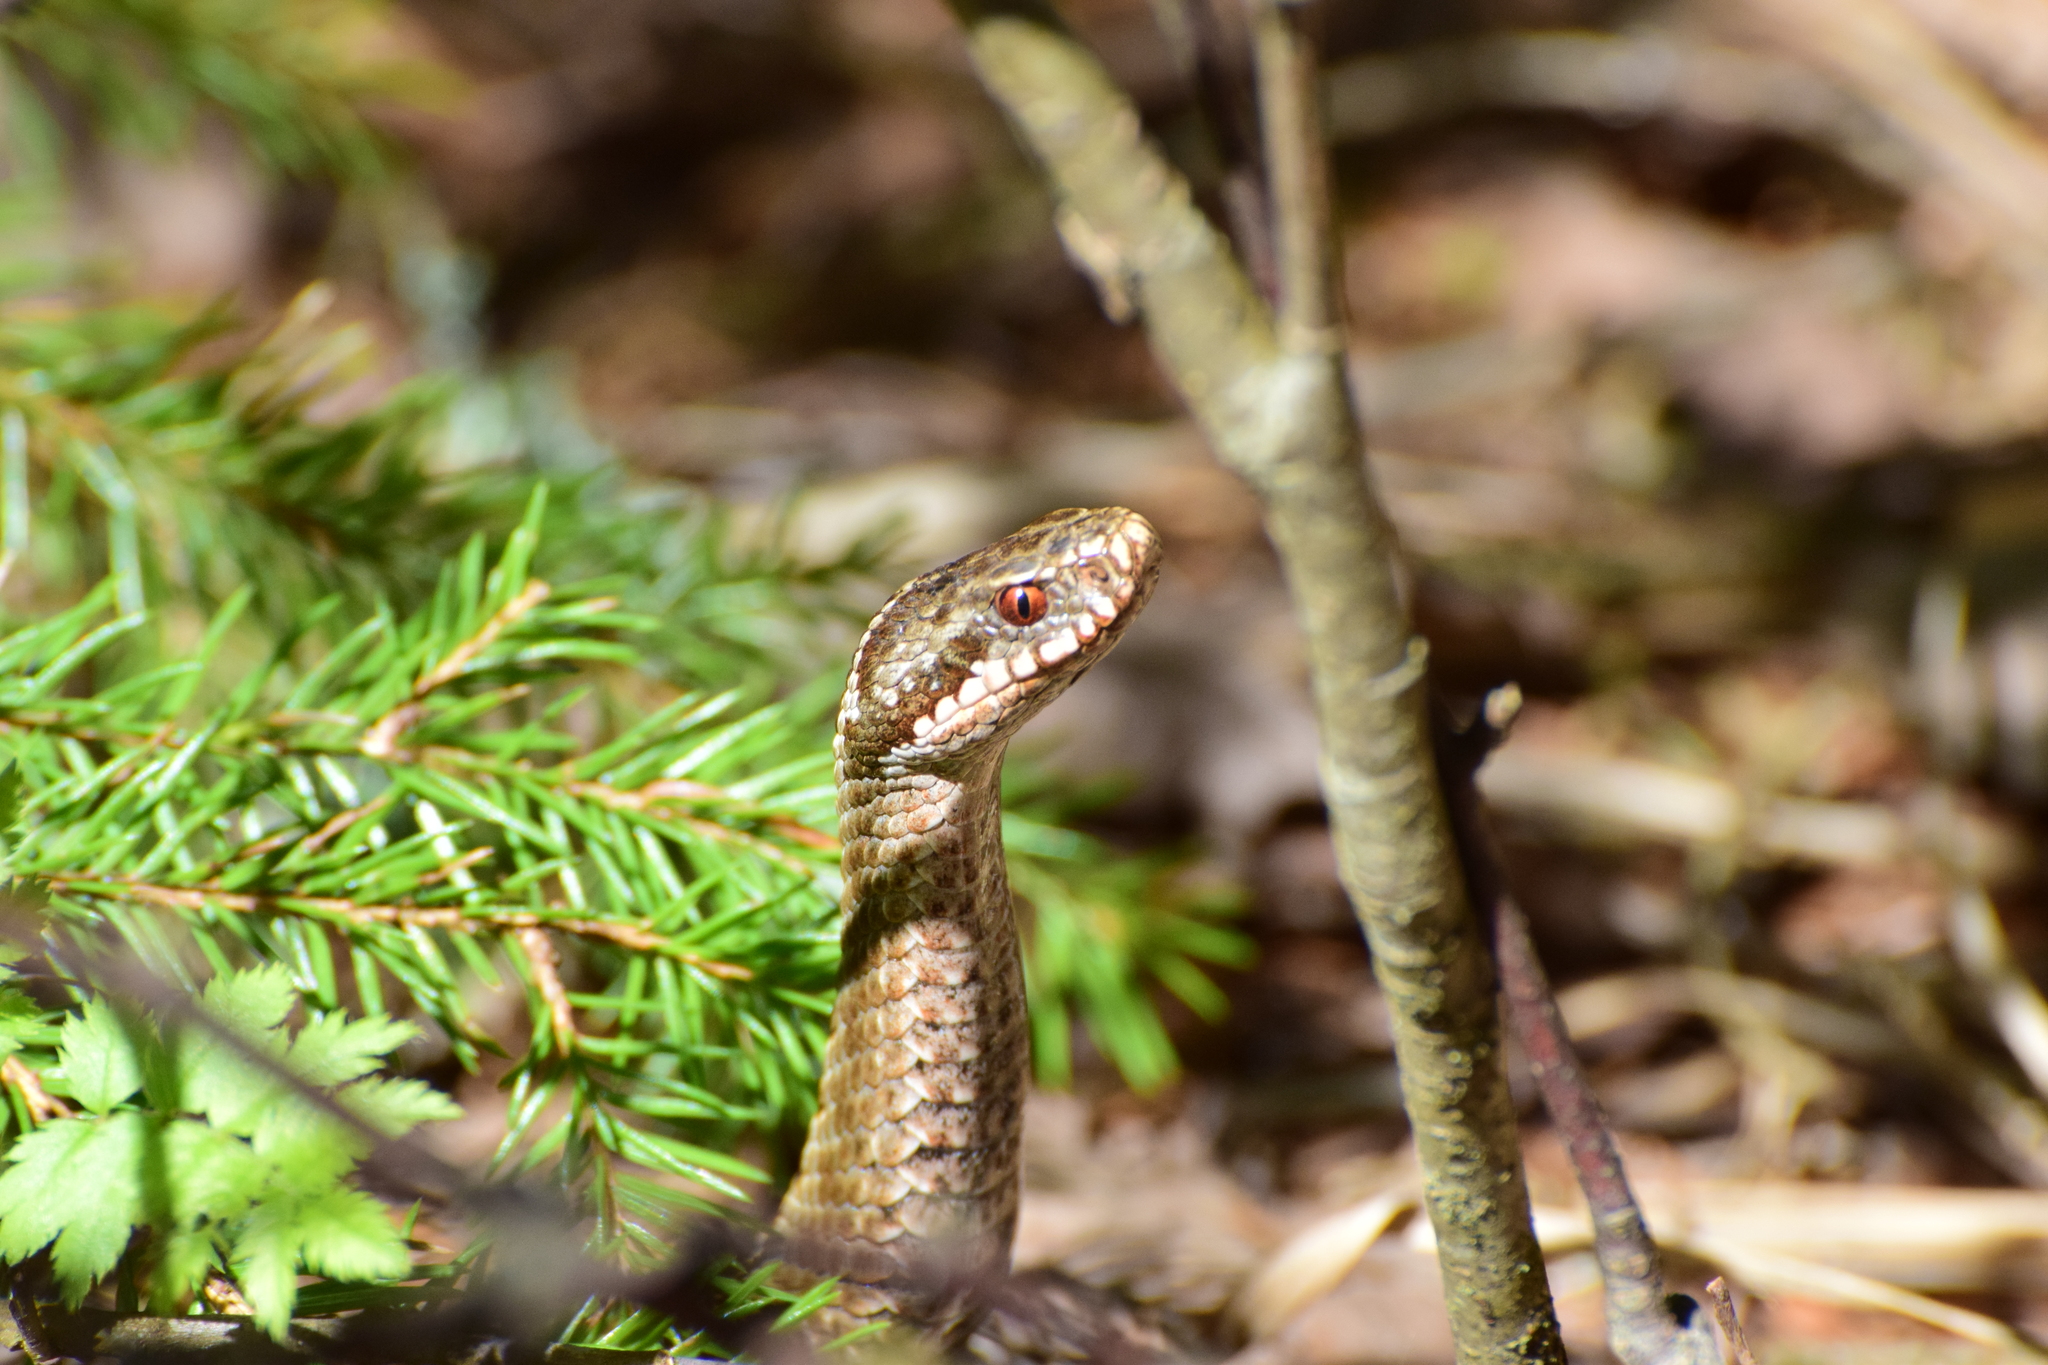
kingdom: Animalia
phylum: Chordata
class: Squamata
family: Viperidae
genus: Vipera
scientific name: Vipera berus
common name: Adder
